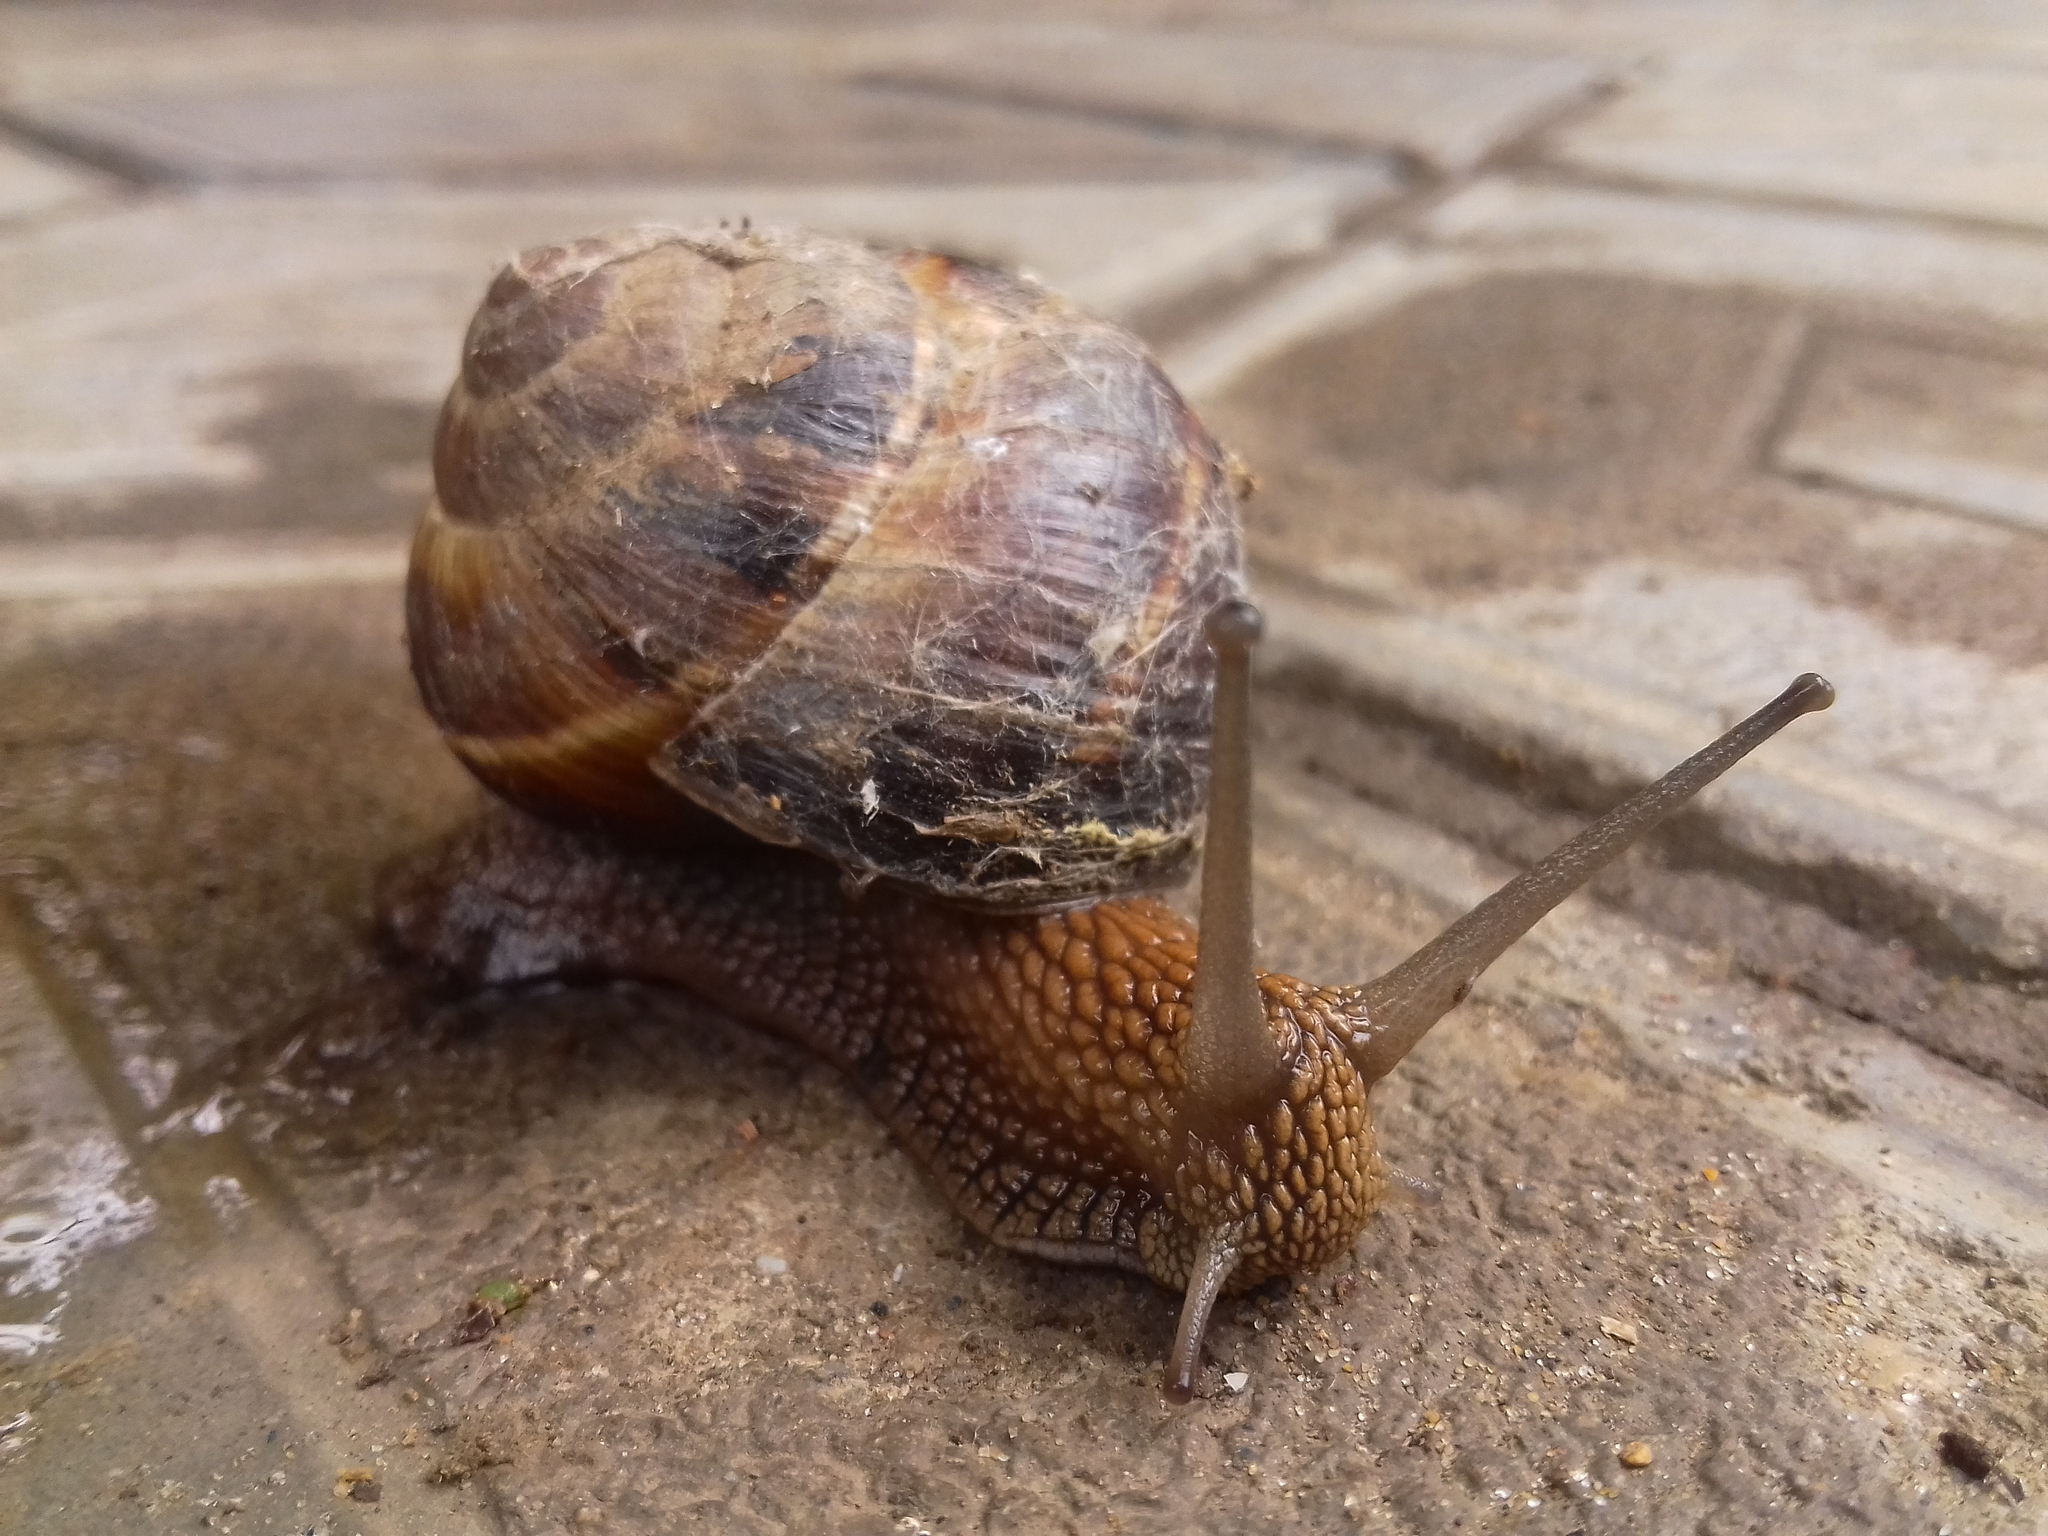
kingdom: Animalia
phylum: Mollusca
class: Gastropoda
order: Stylommatophora
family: Helicidae
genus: Helix
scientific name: Helix lucorum
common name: Turkish snail
